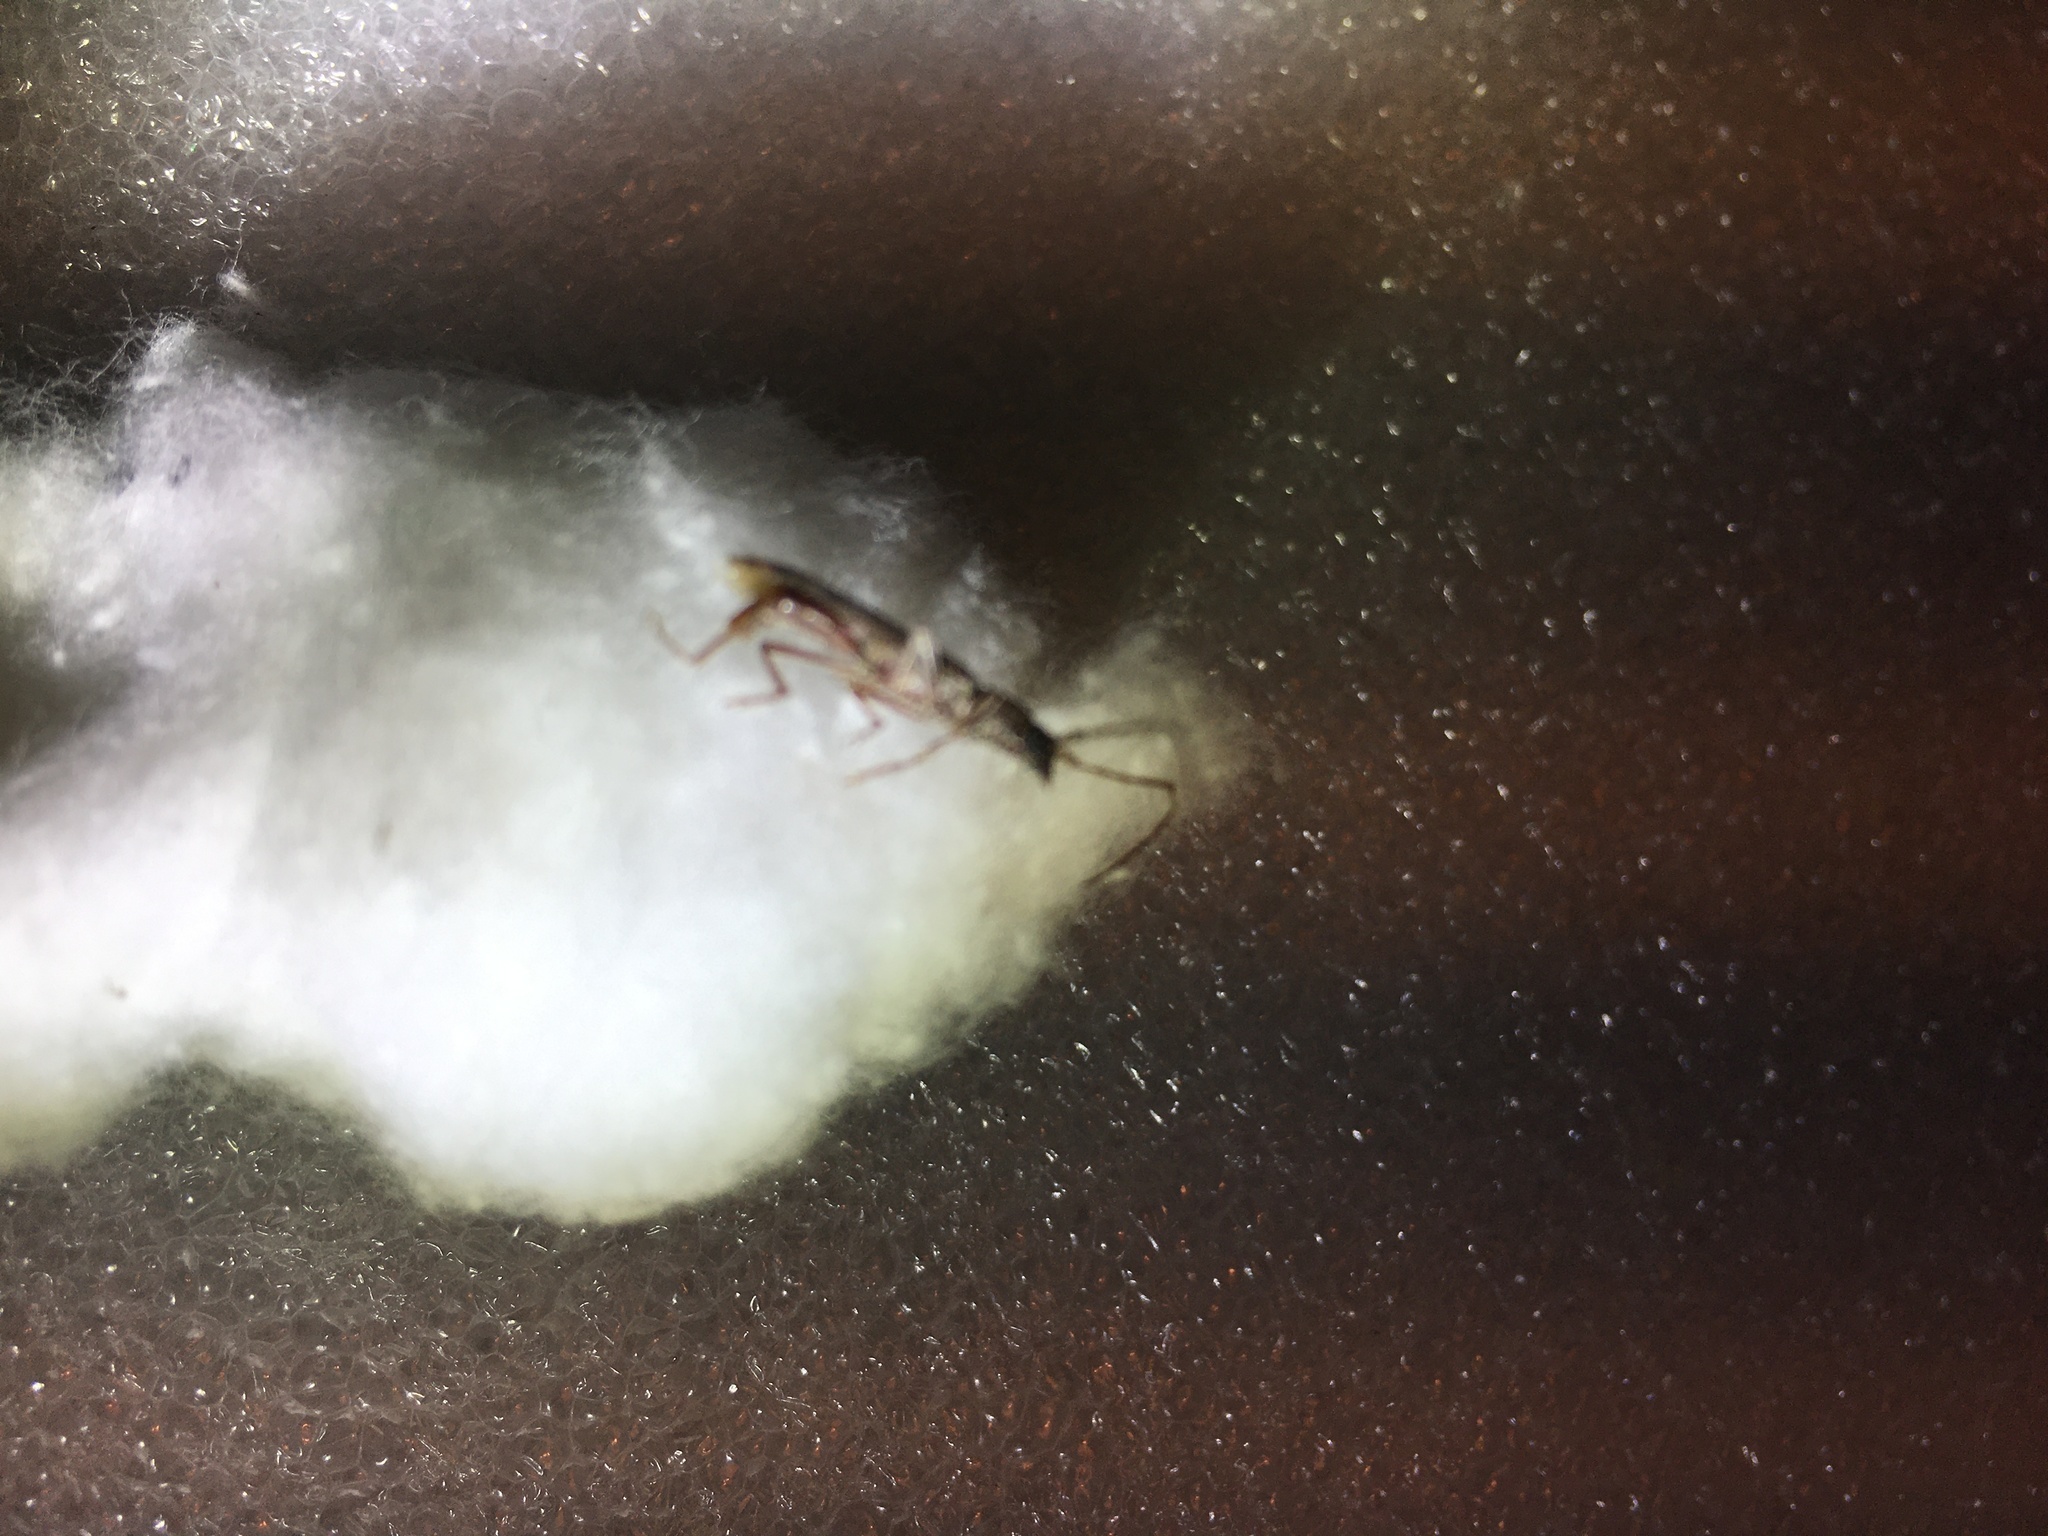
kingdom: Animalia
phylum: Arthropoda
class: Insecta
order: Coleoptera
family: Cerambycidae
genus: Anelaphus
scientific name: Anelaphus villosus
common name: Twig pruner
